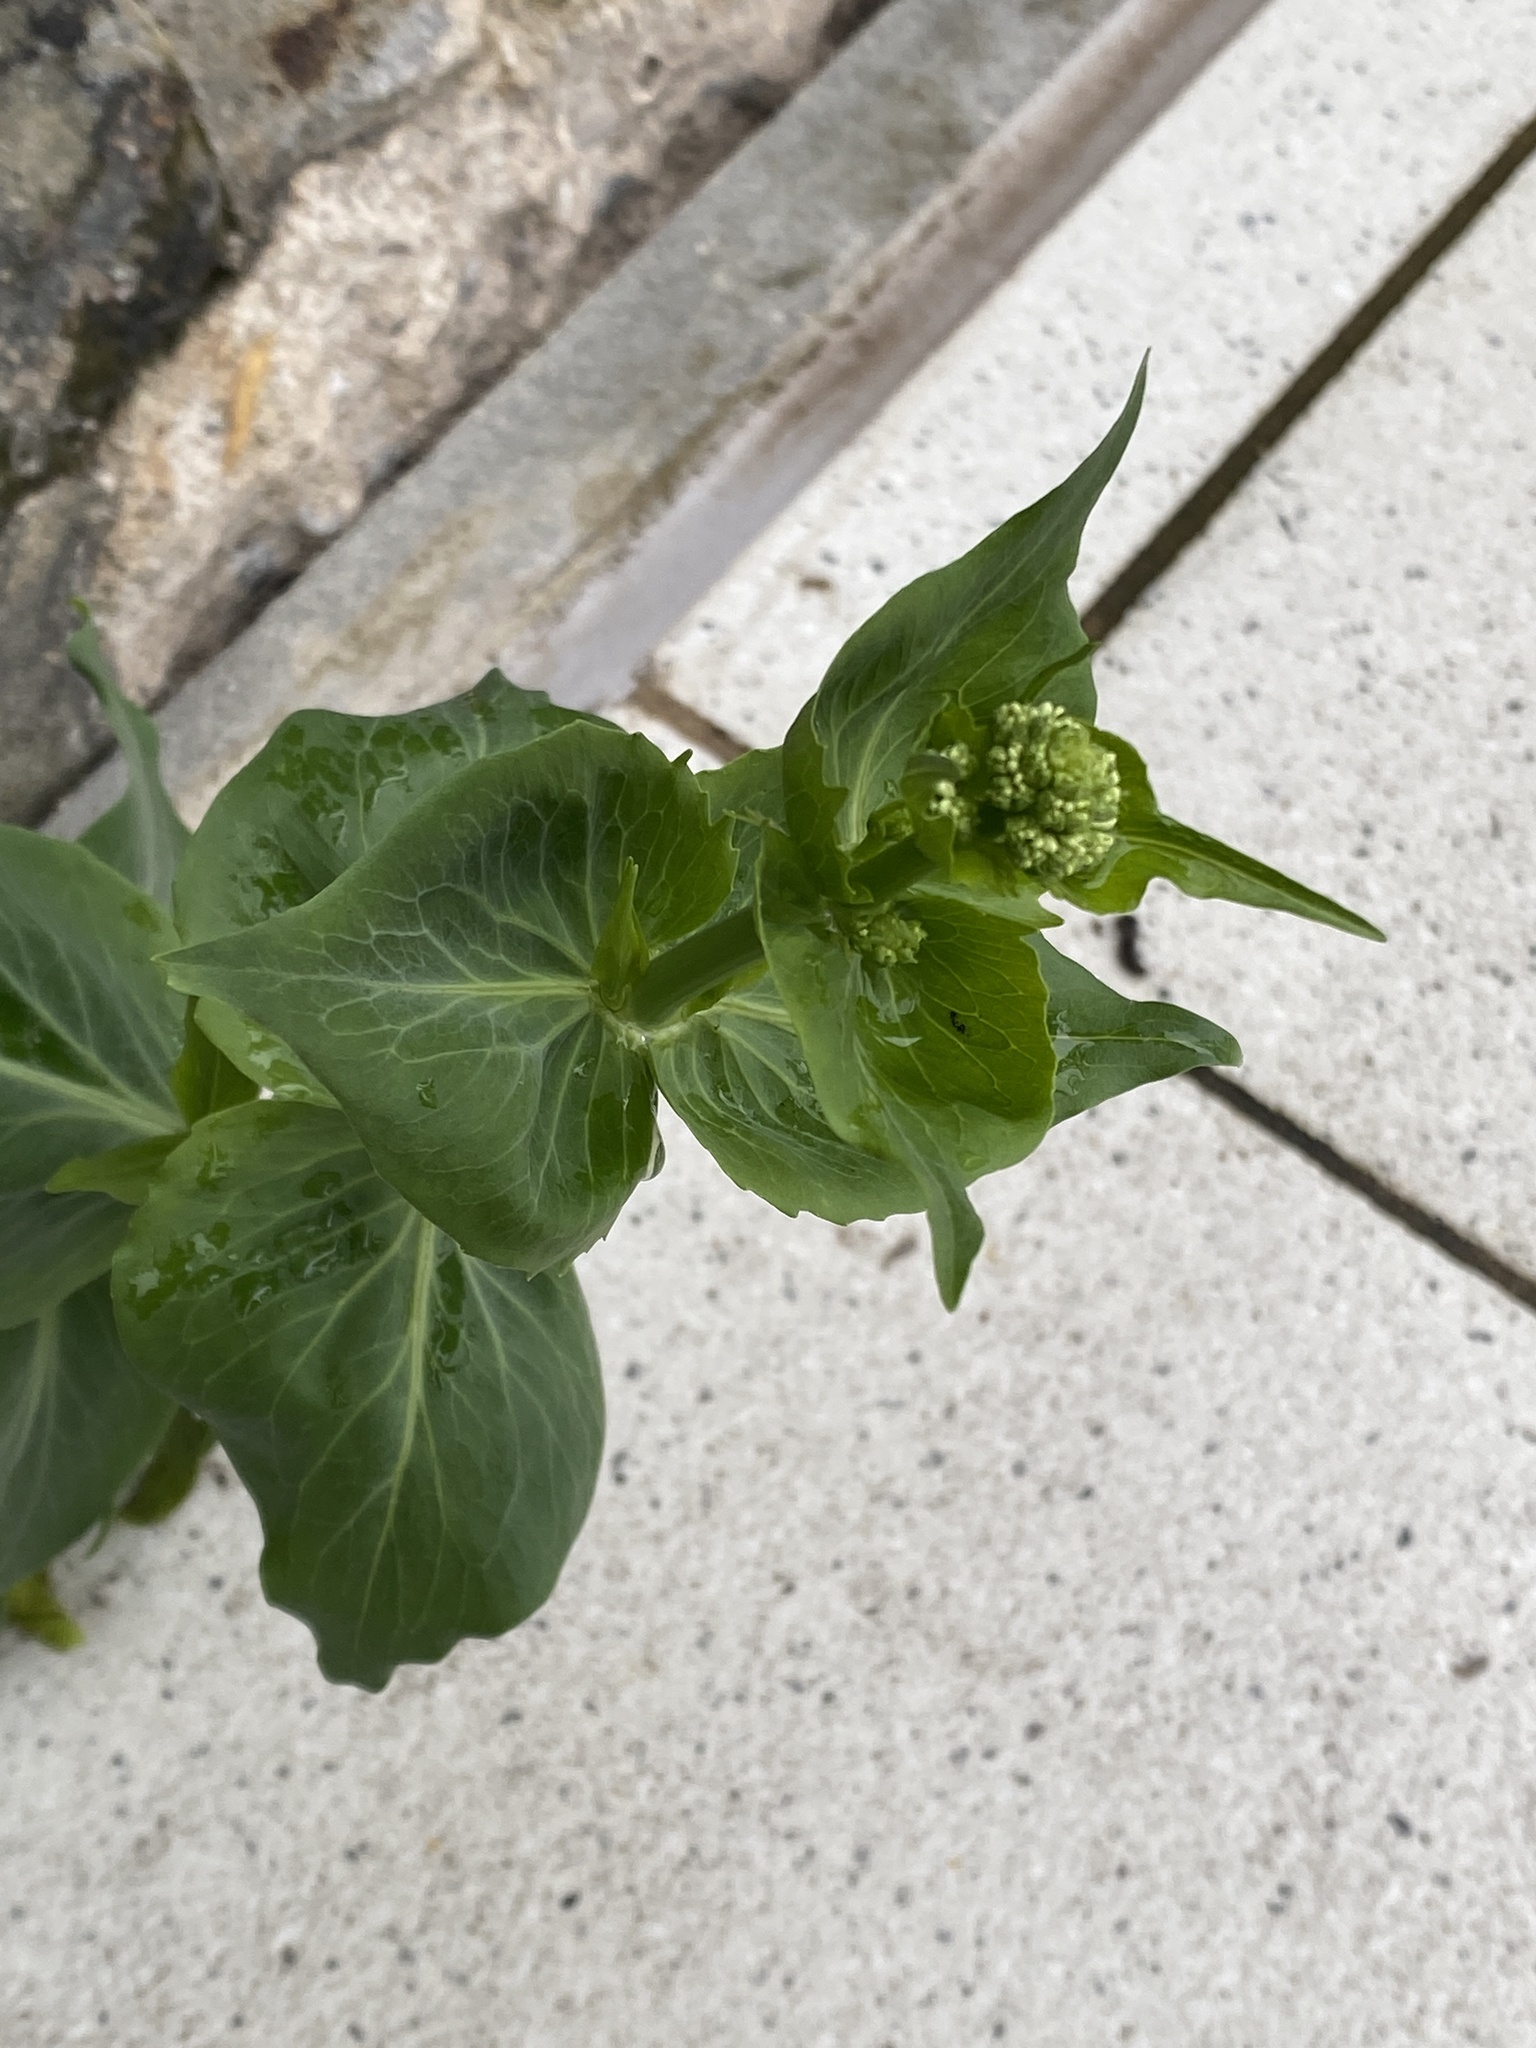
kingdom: Plantae
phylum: Tracheophyta
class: Magnoliopsida
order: Dipsacales
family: Caprifoliaceae
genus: Centranthus
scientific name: Centranthus ruber
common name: Red valerian
